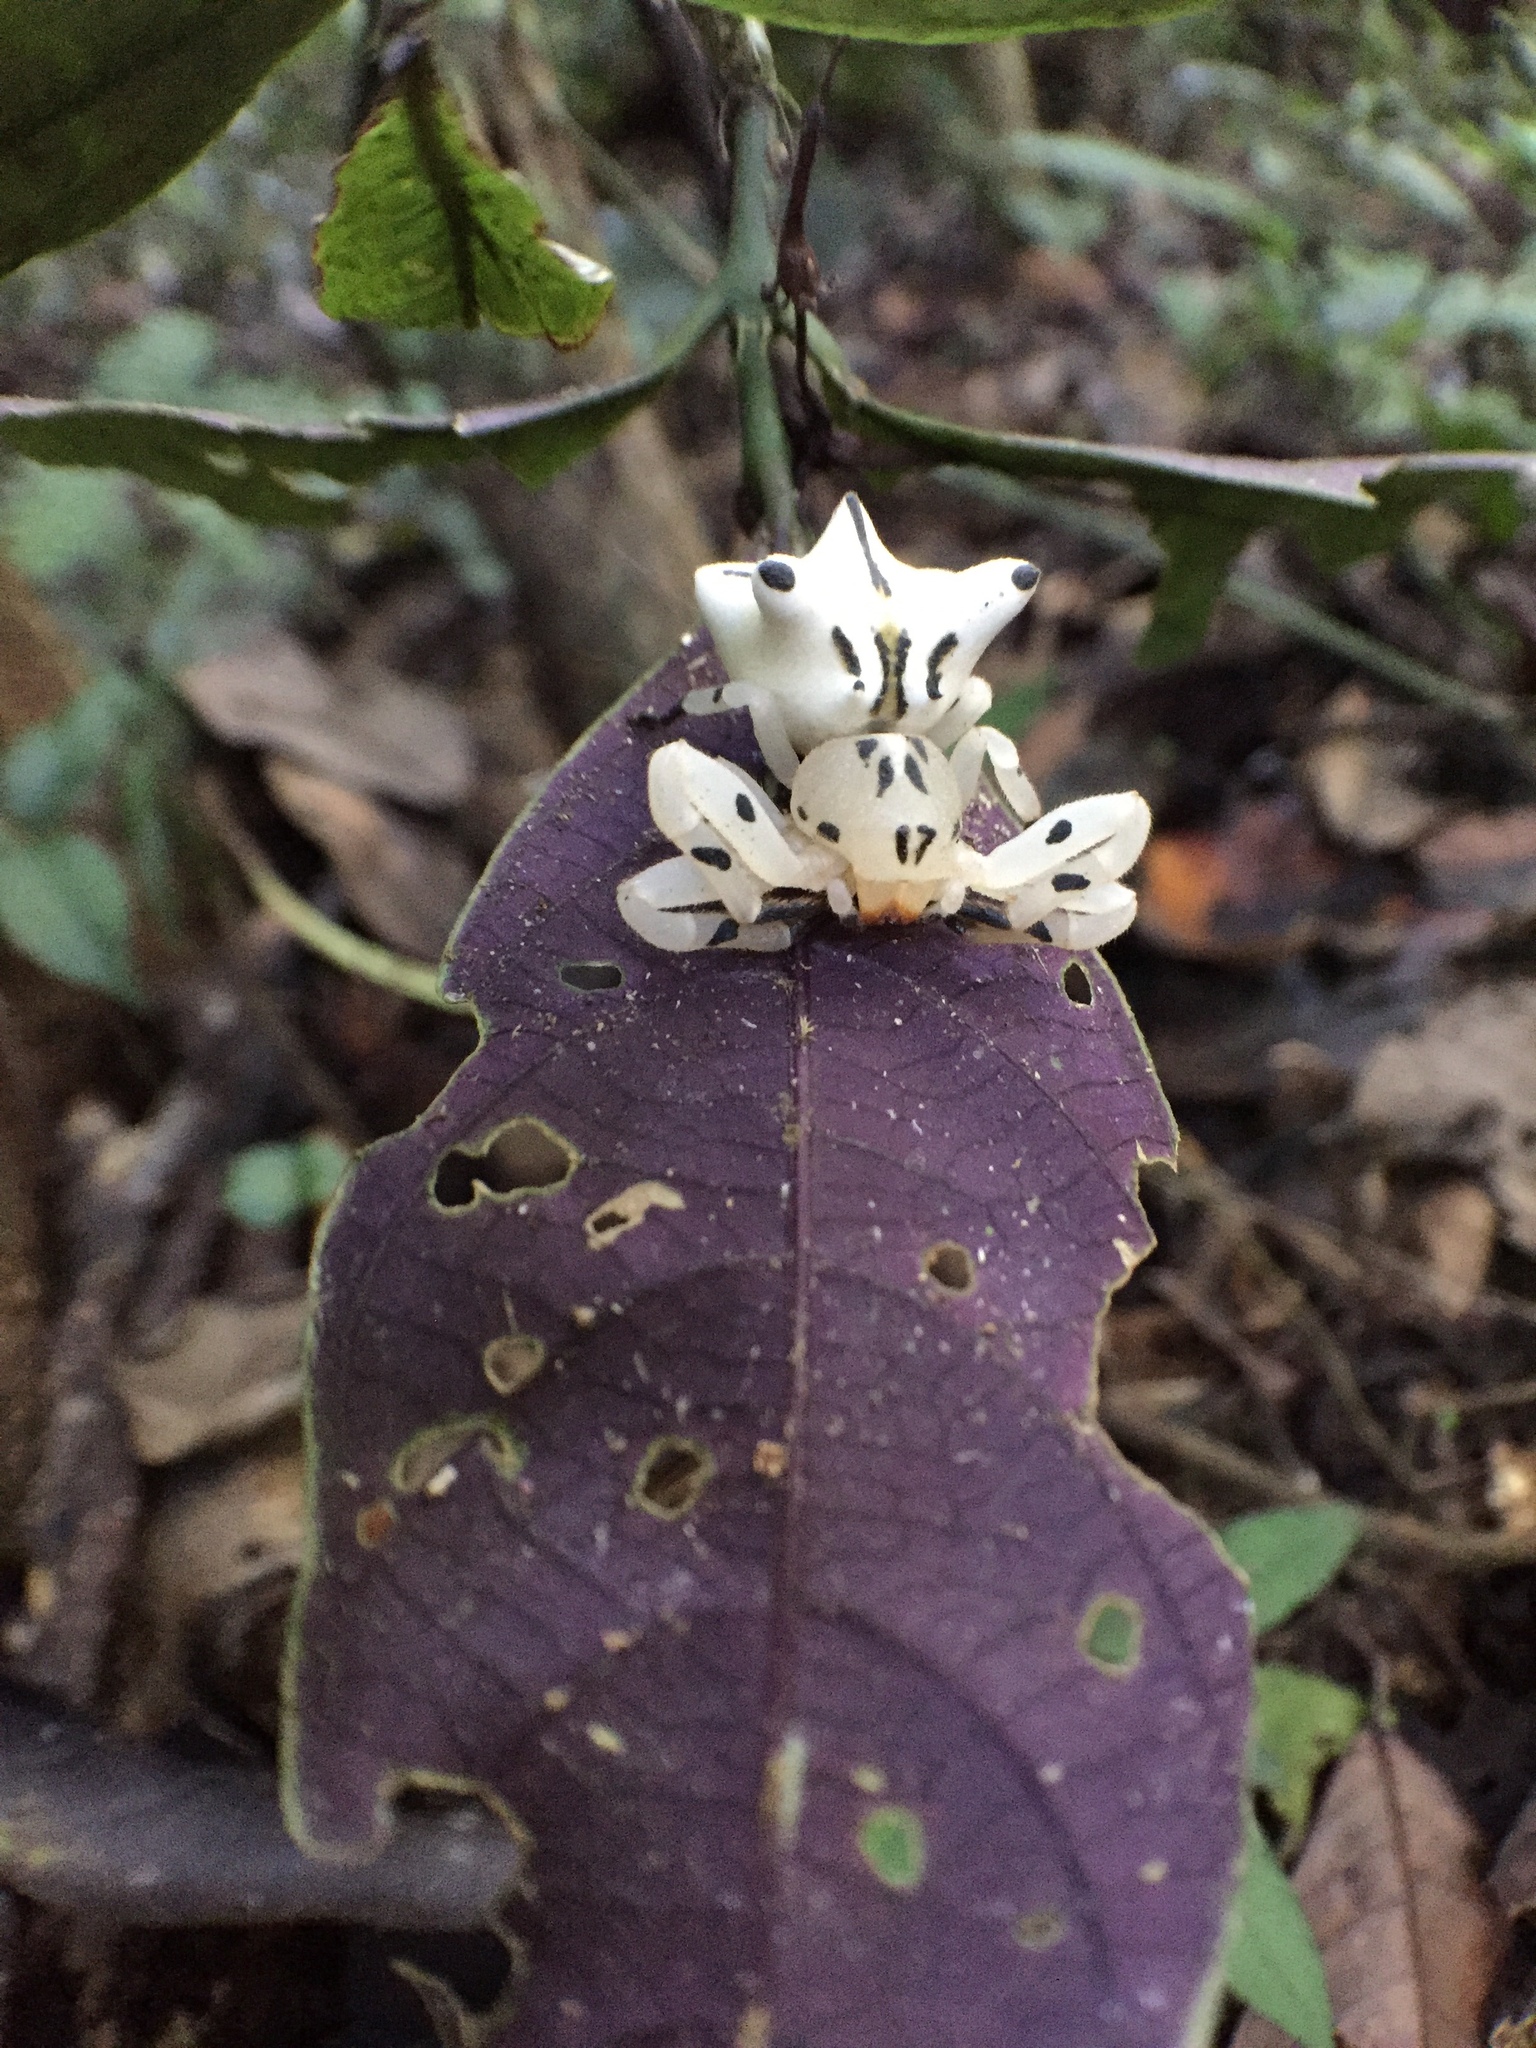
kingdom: Animalia
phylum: Arthropoda
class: Arachnida
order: Araneae
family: Thomisidae
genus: Epicadus
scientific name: Epicadus heterogaster
